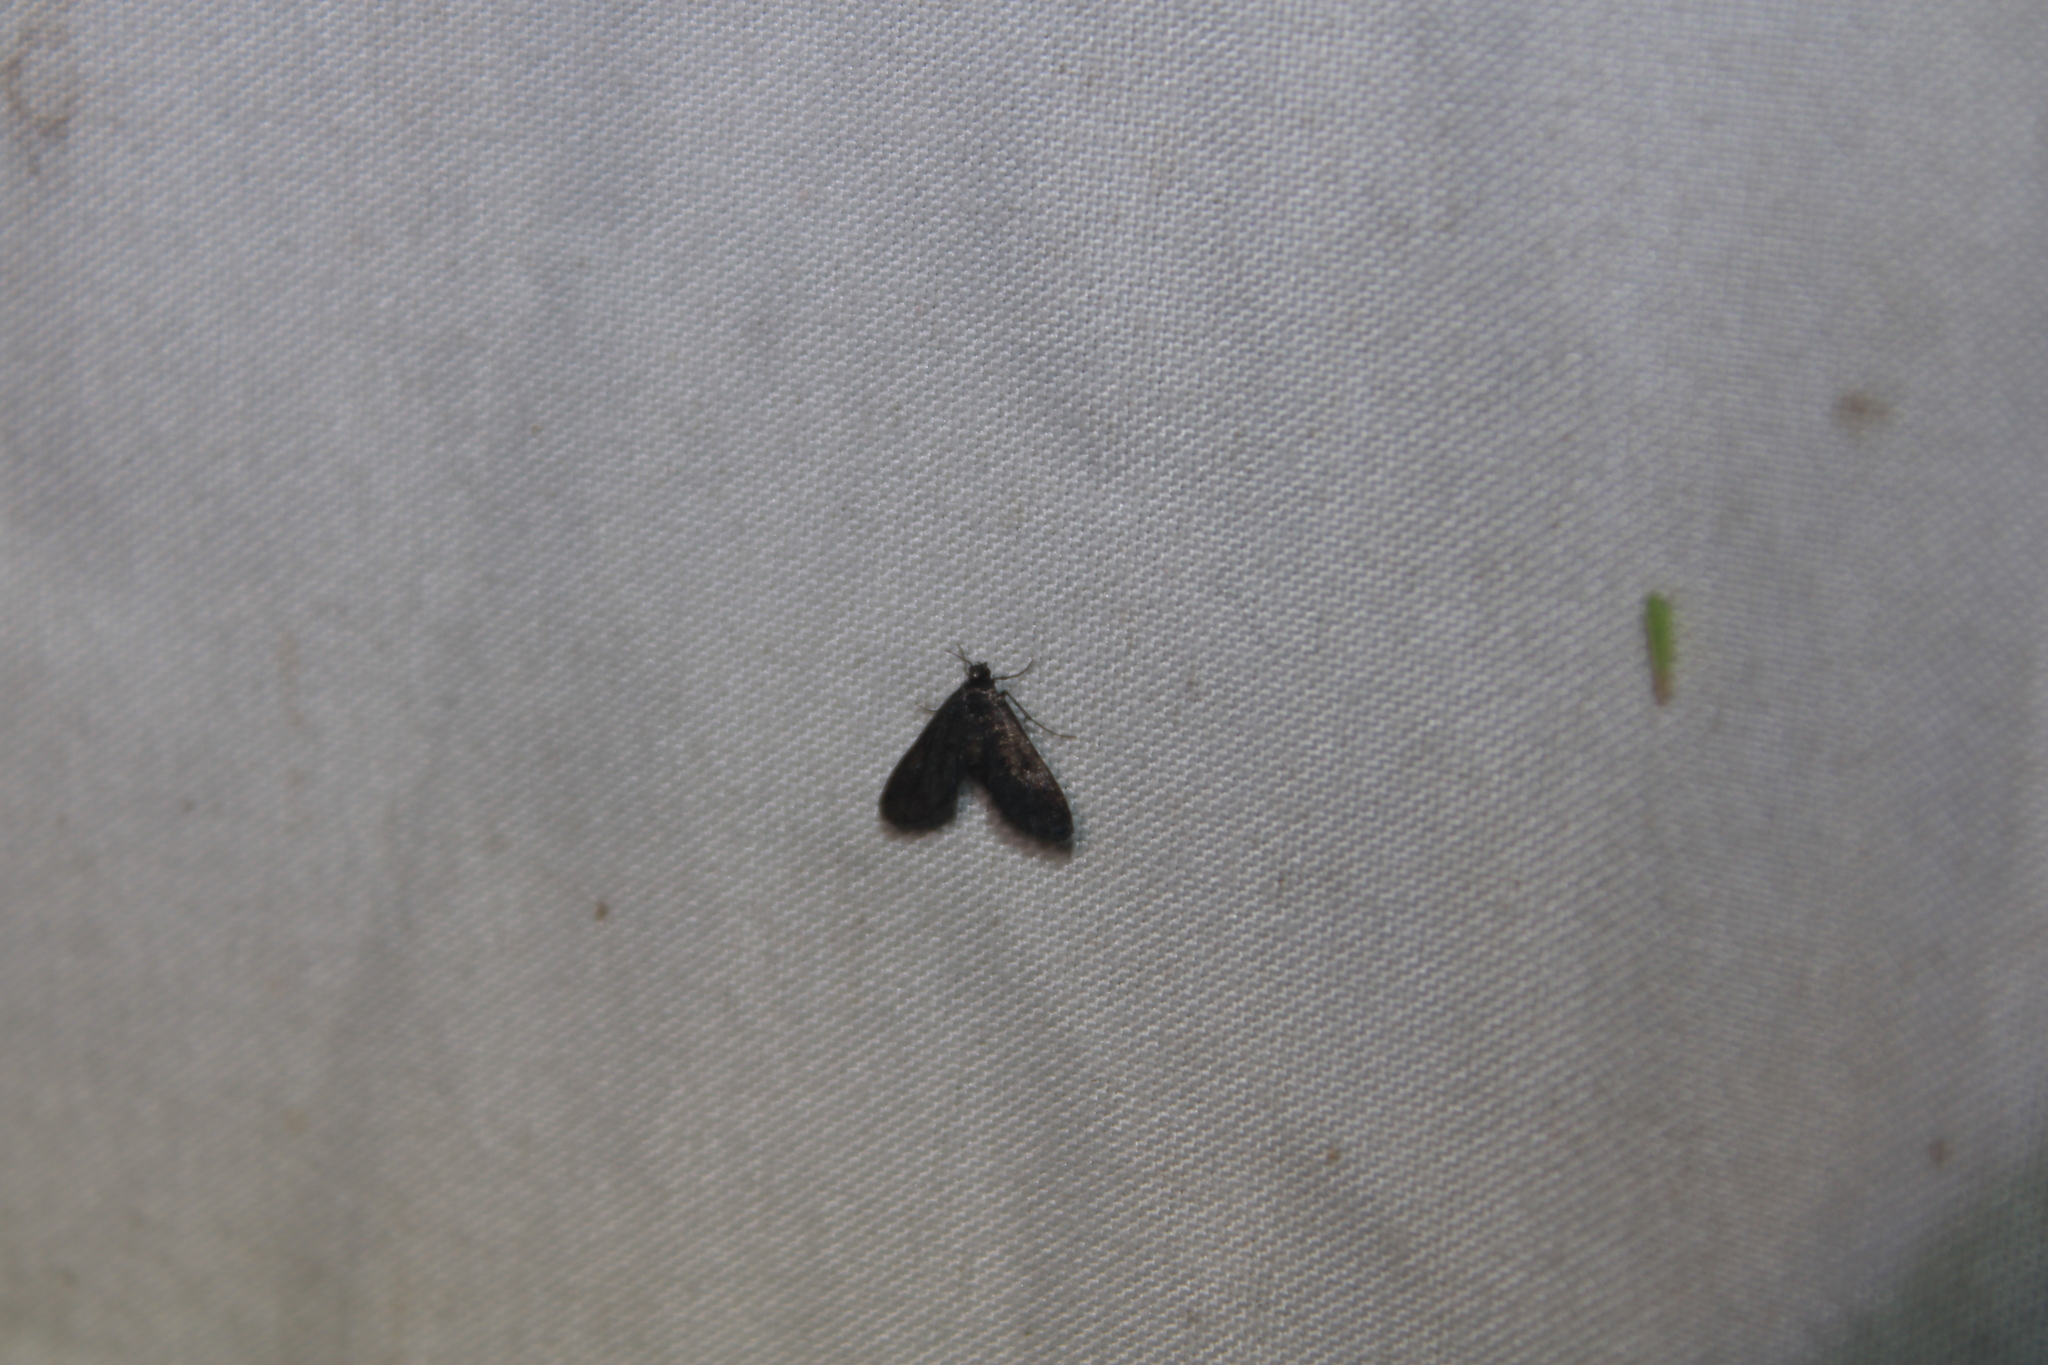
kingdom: Animalia
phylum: Arthropoda
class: Insecta
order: Lepidoptera
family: Crambidae
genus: Elophila
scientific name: Elophila tinealis
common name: Black duckweed moth
